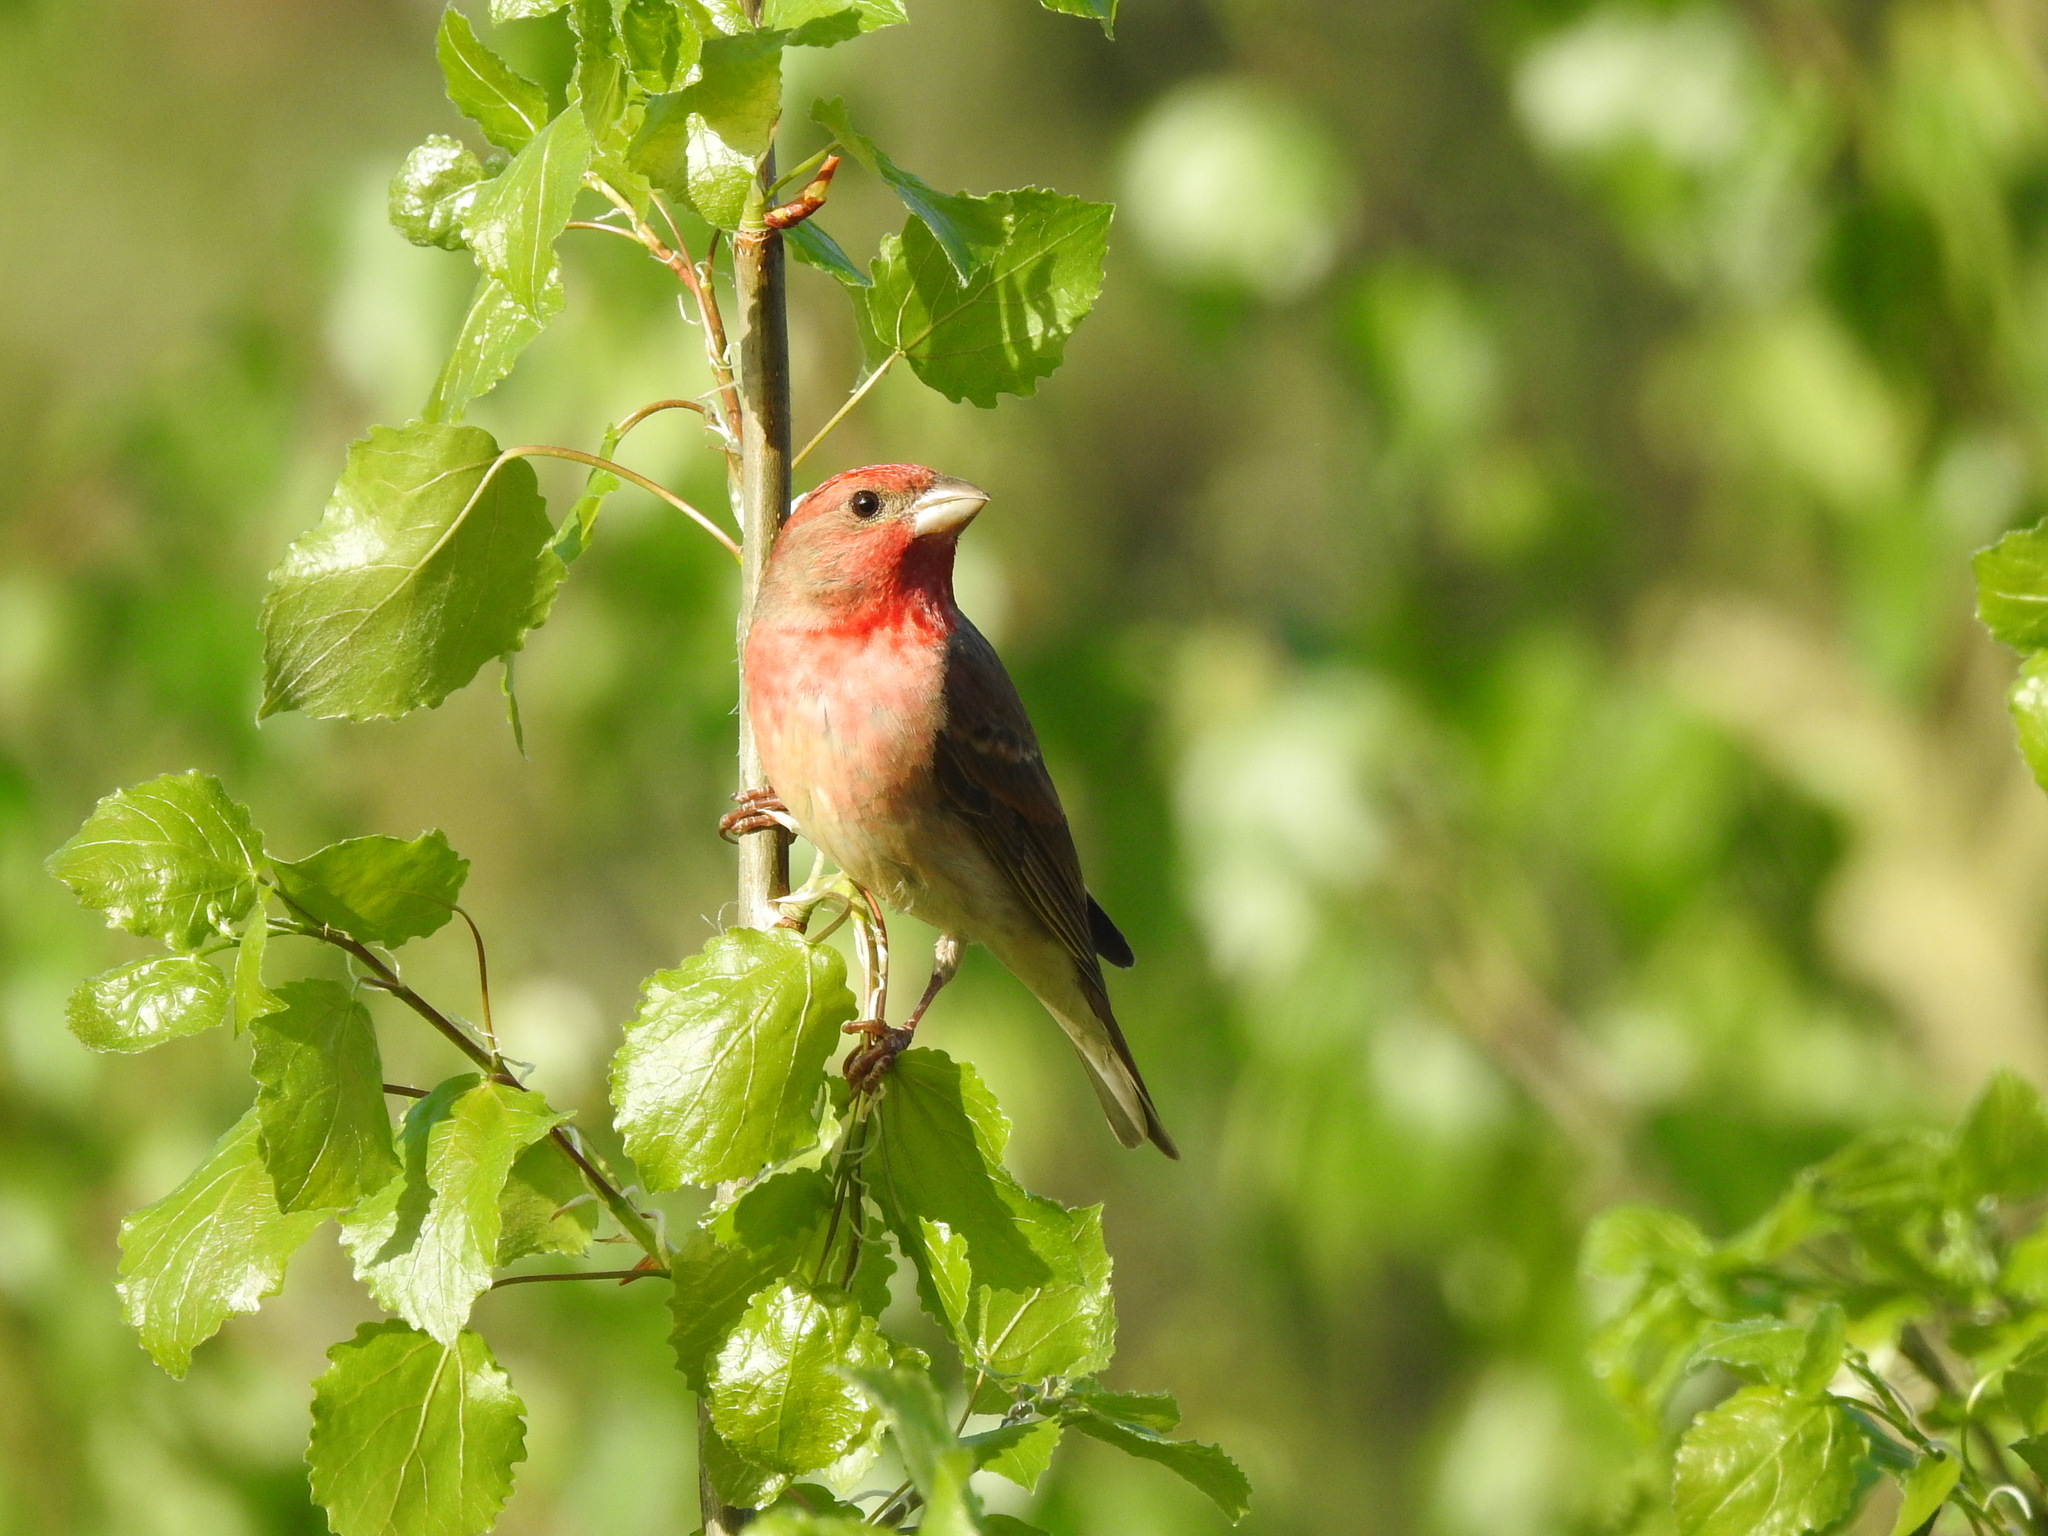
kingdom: Animalia
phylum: Chordata
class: Aves
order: Passeriformes
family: Fringillidae
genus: Carpodacus
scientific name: Carpodacus erythrinus
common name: Common rosefinch
